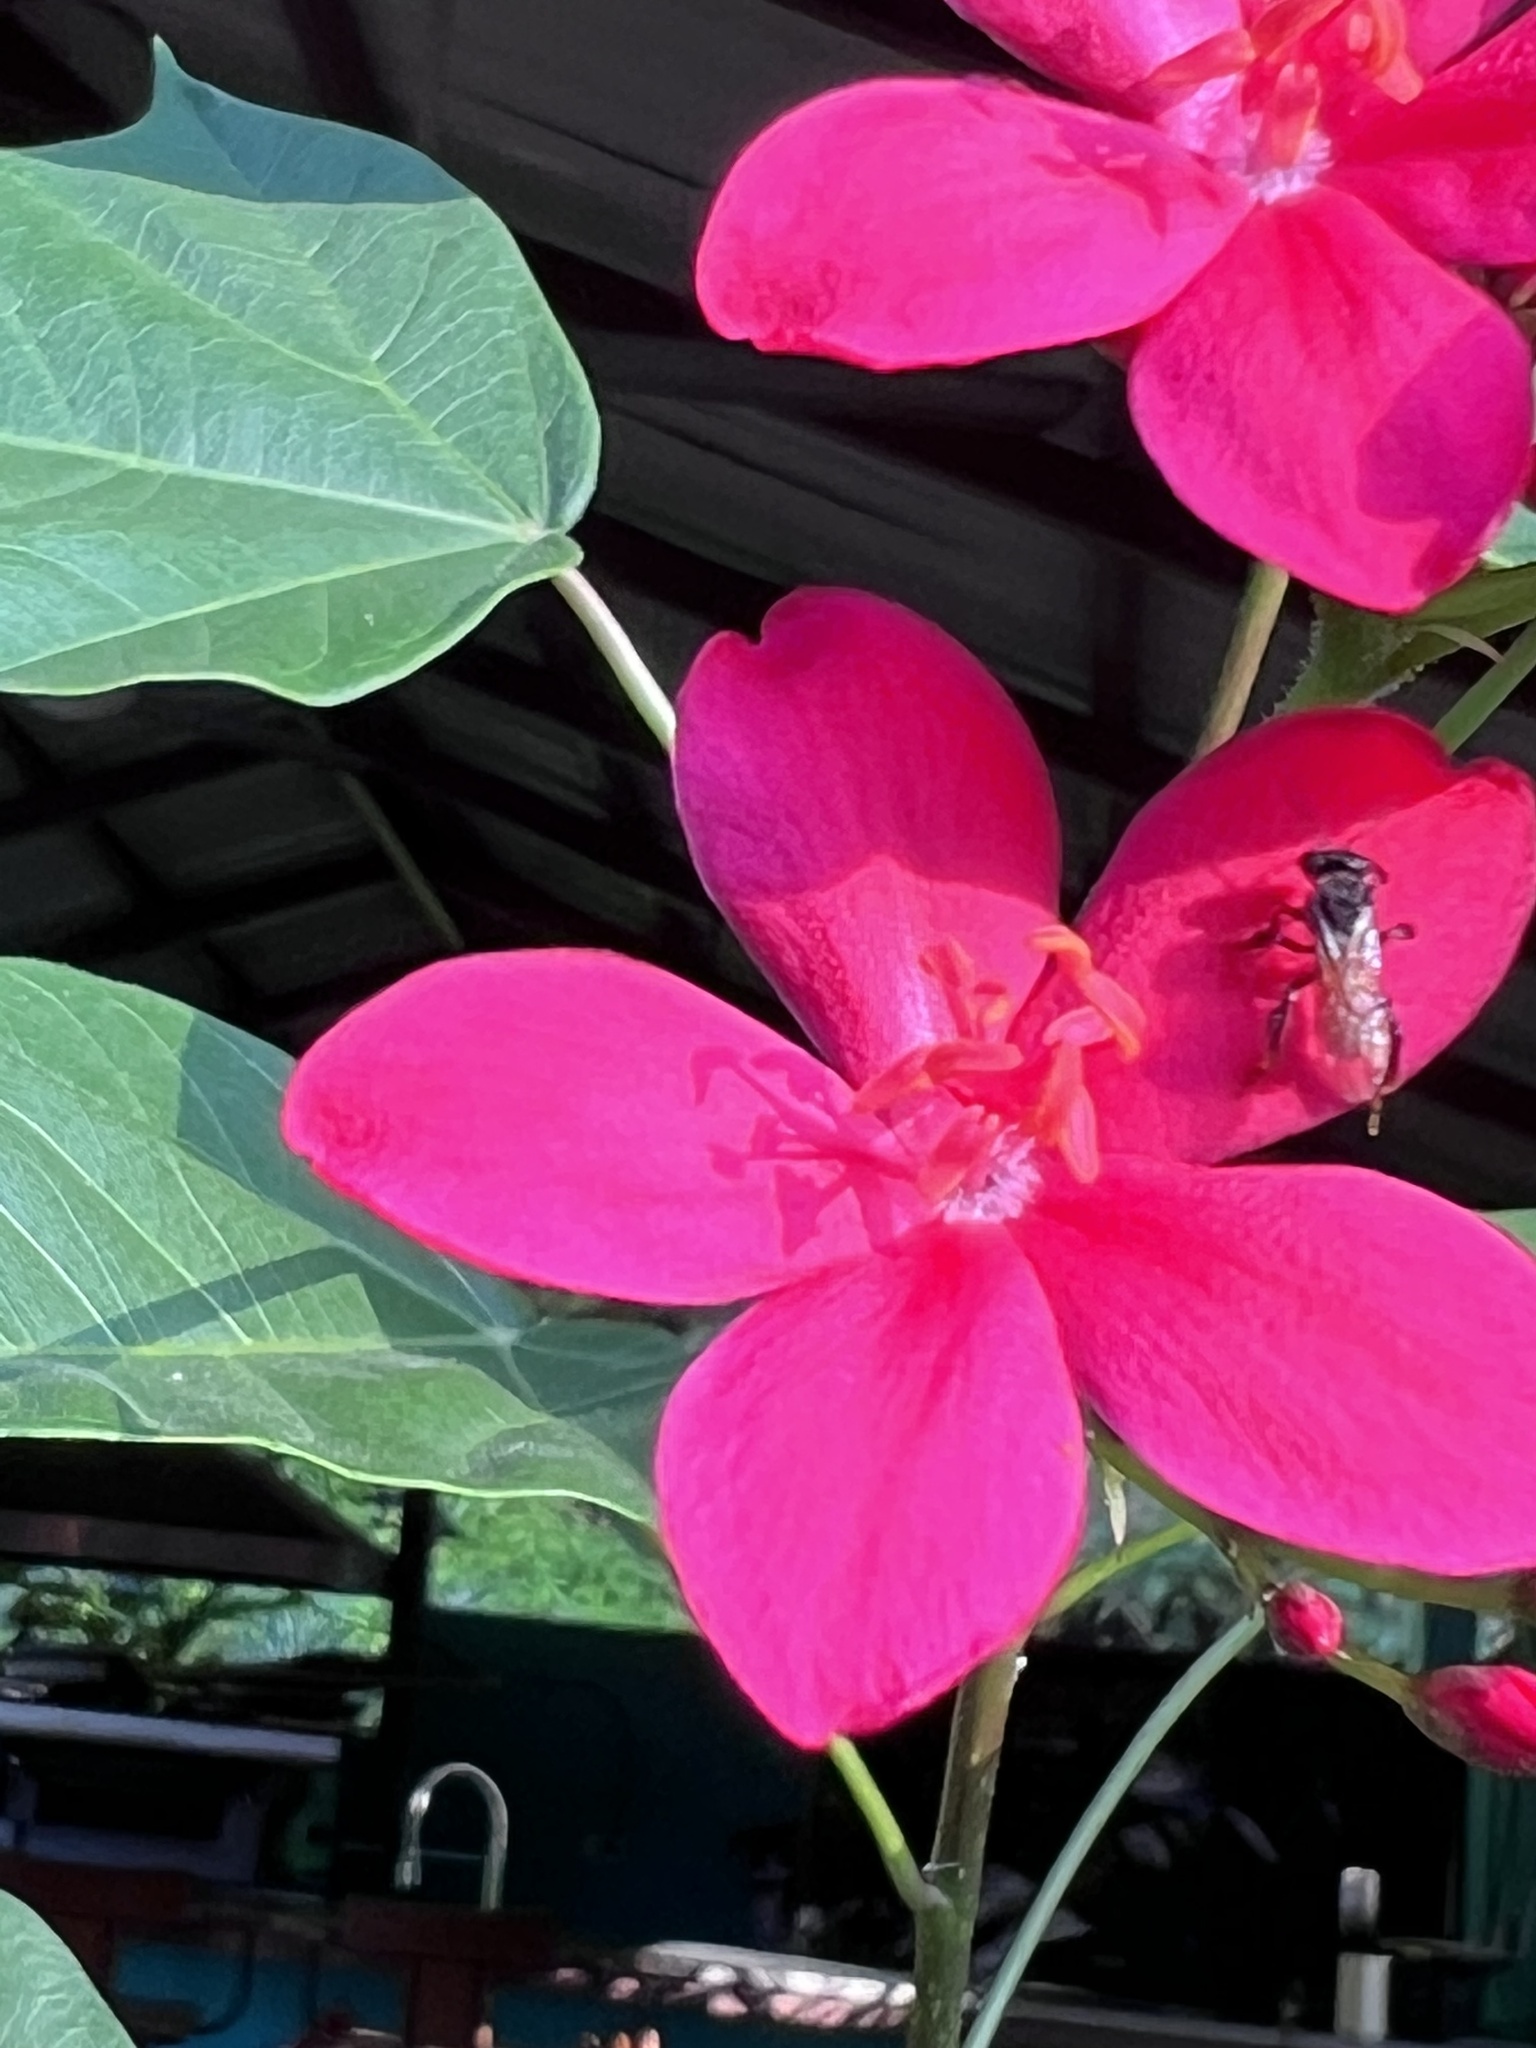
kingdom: Plantae
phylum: Tracheophyta
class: Magnoliopsida
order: Malpighiales
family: Euphorbiaceae
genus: Jatropha
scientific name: Jatropha integerrima
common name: Peregrina
